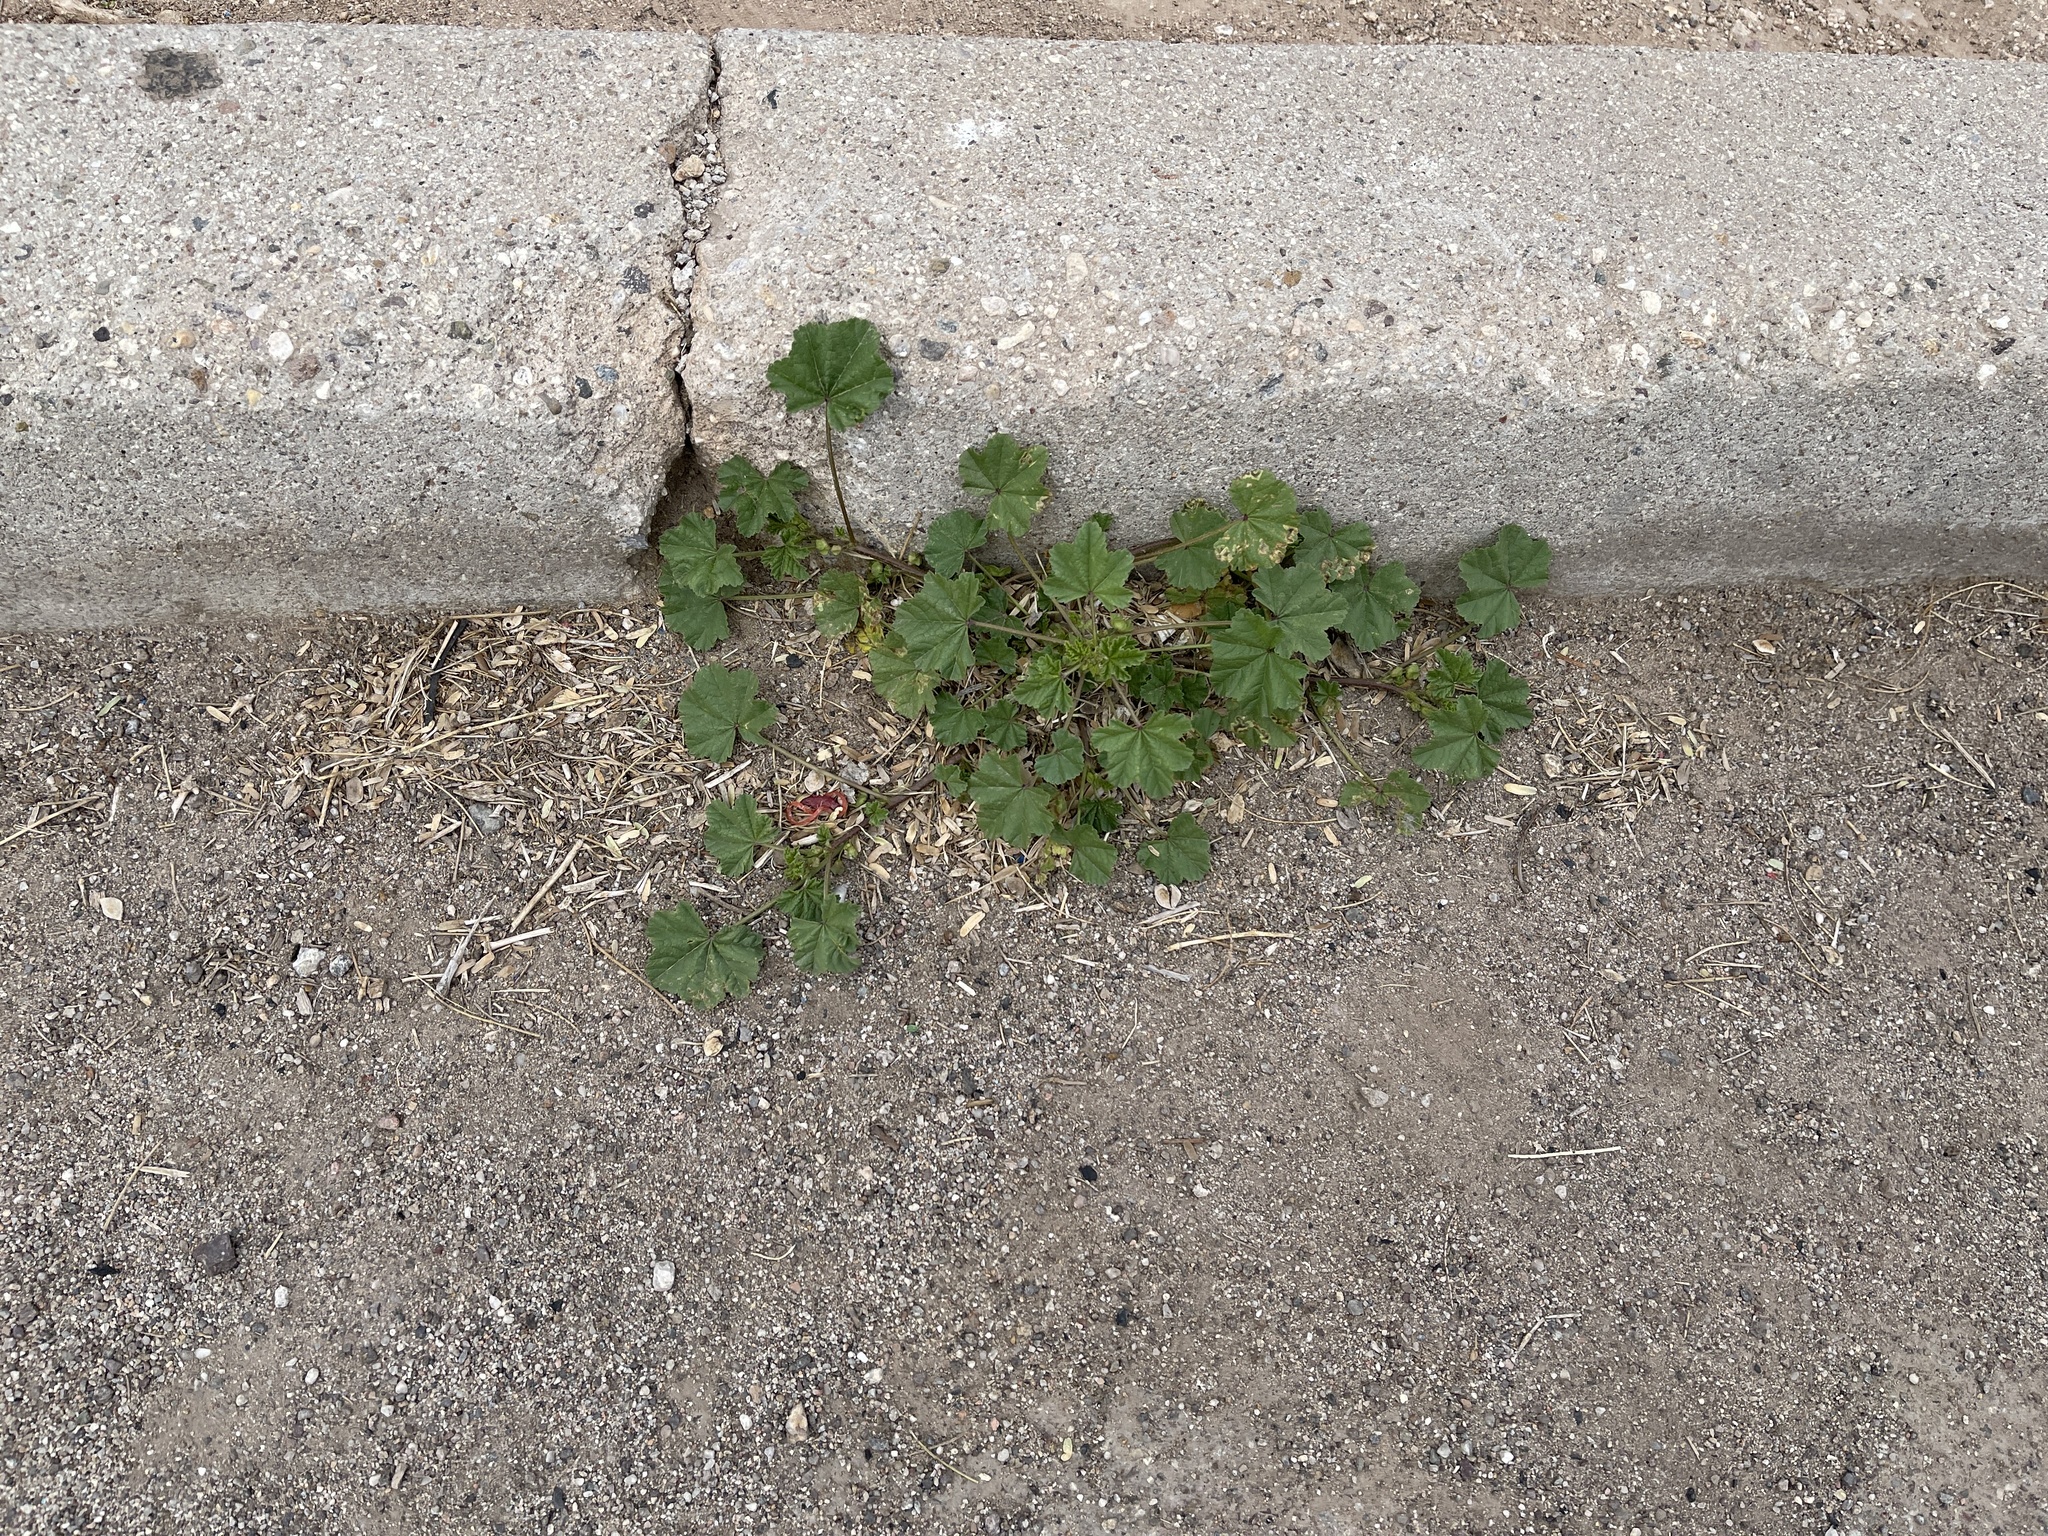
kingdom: Plantae
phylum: Tracheophyta
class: Magnoliopsida
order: Malvales
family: Malvaceae
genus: Malva
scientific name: Malva parviflora
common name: Least mallow
